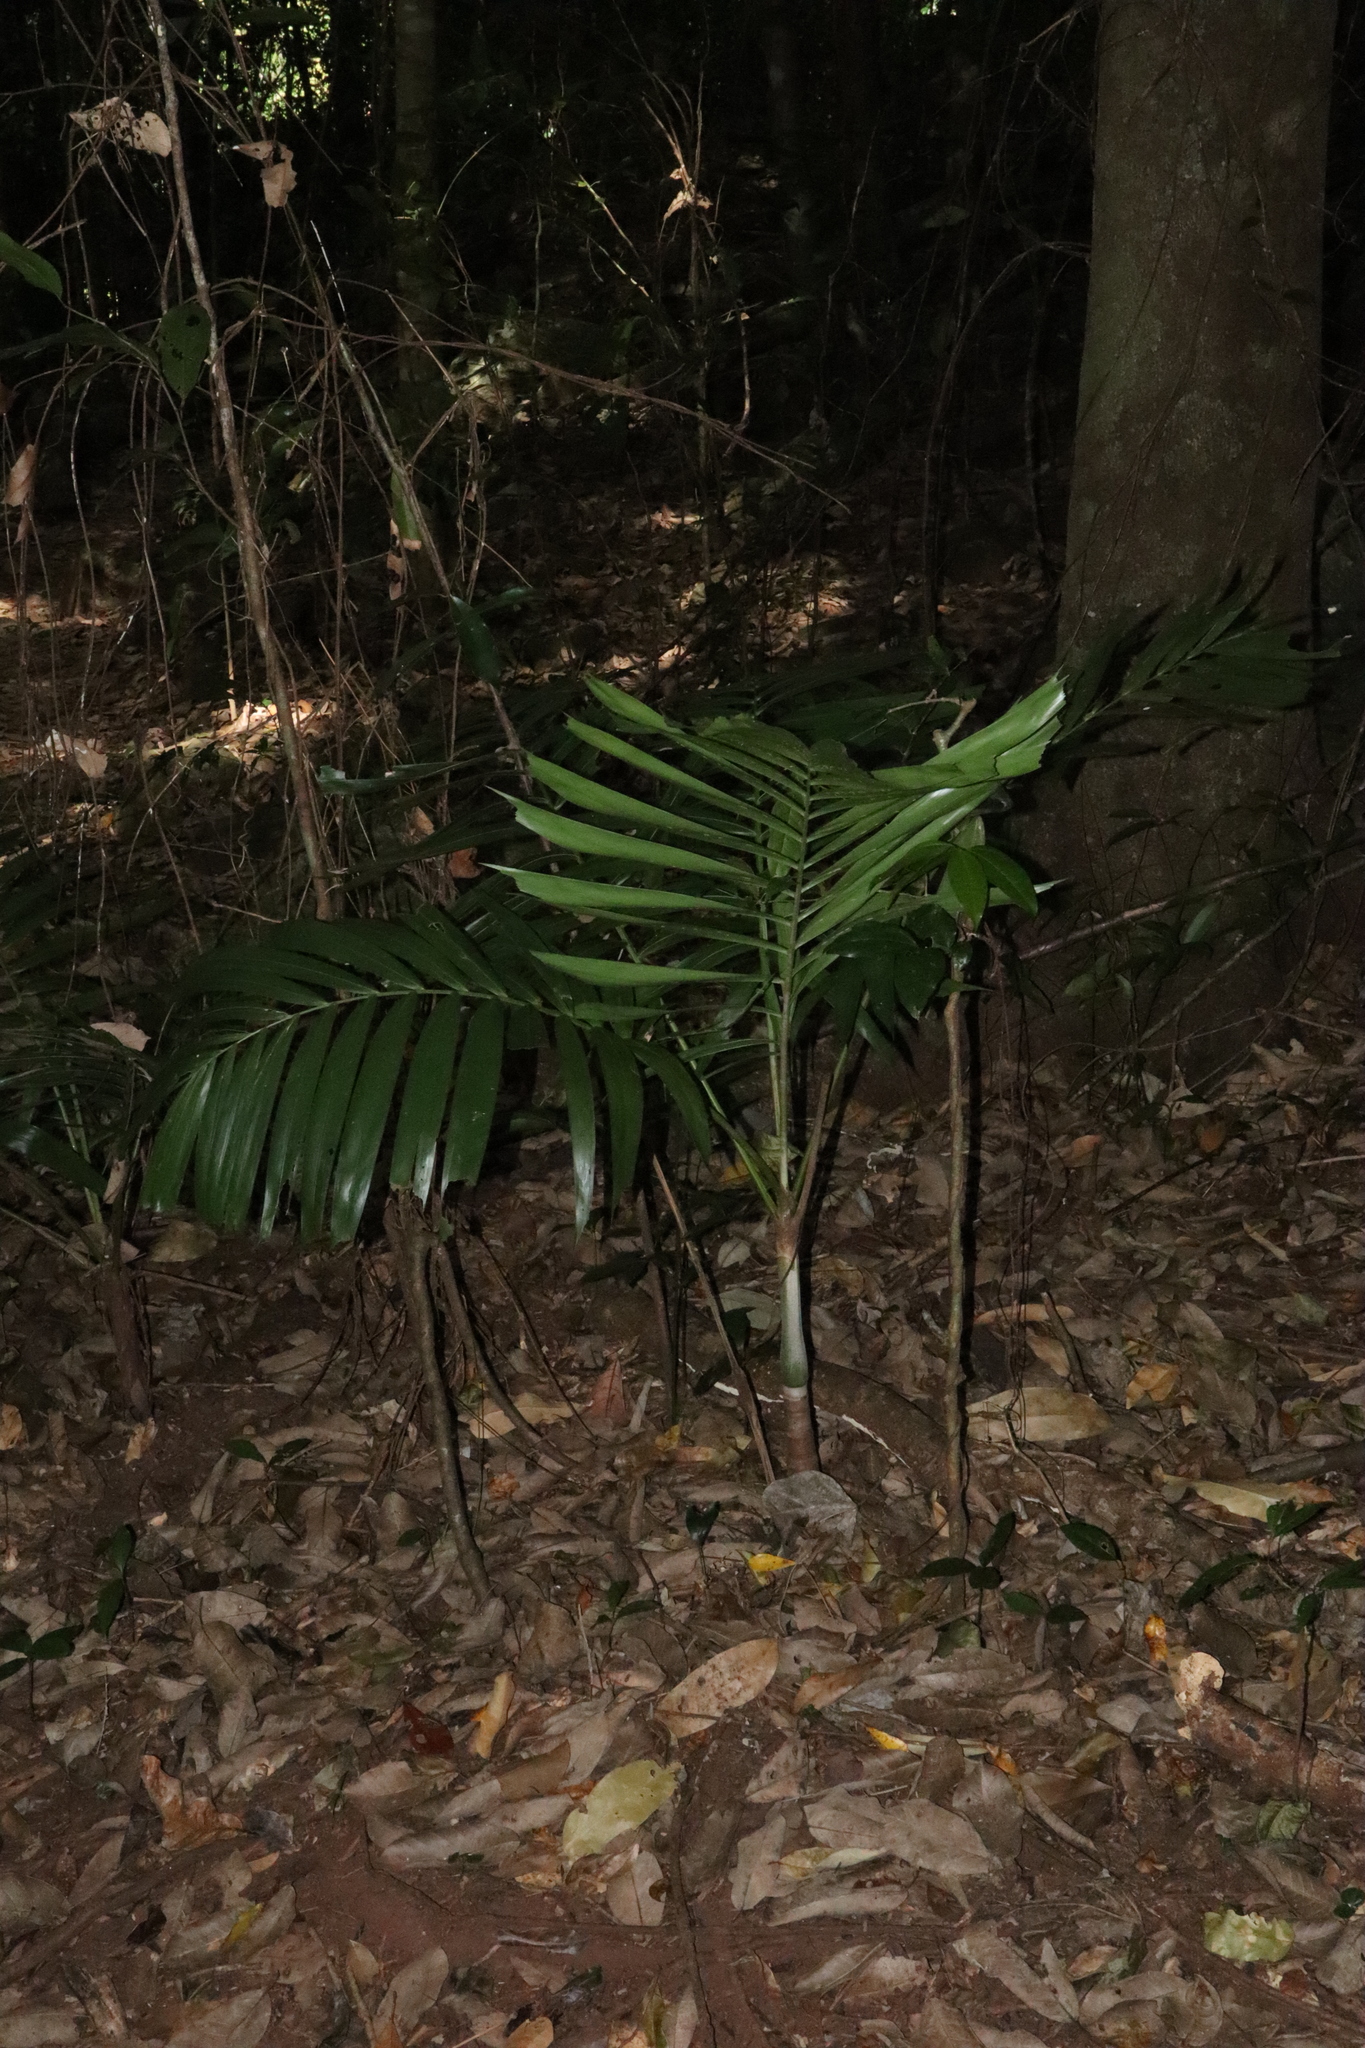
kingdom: Plantae
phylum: Tracheophyta
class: Liliopsida
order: Arecales
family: Arecaceae
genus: Ptychosperma
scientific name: Ptychosperma elegans
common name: Alexander palm
